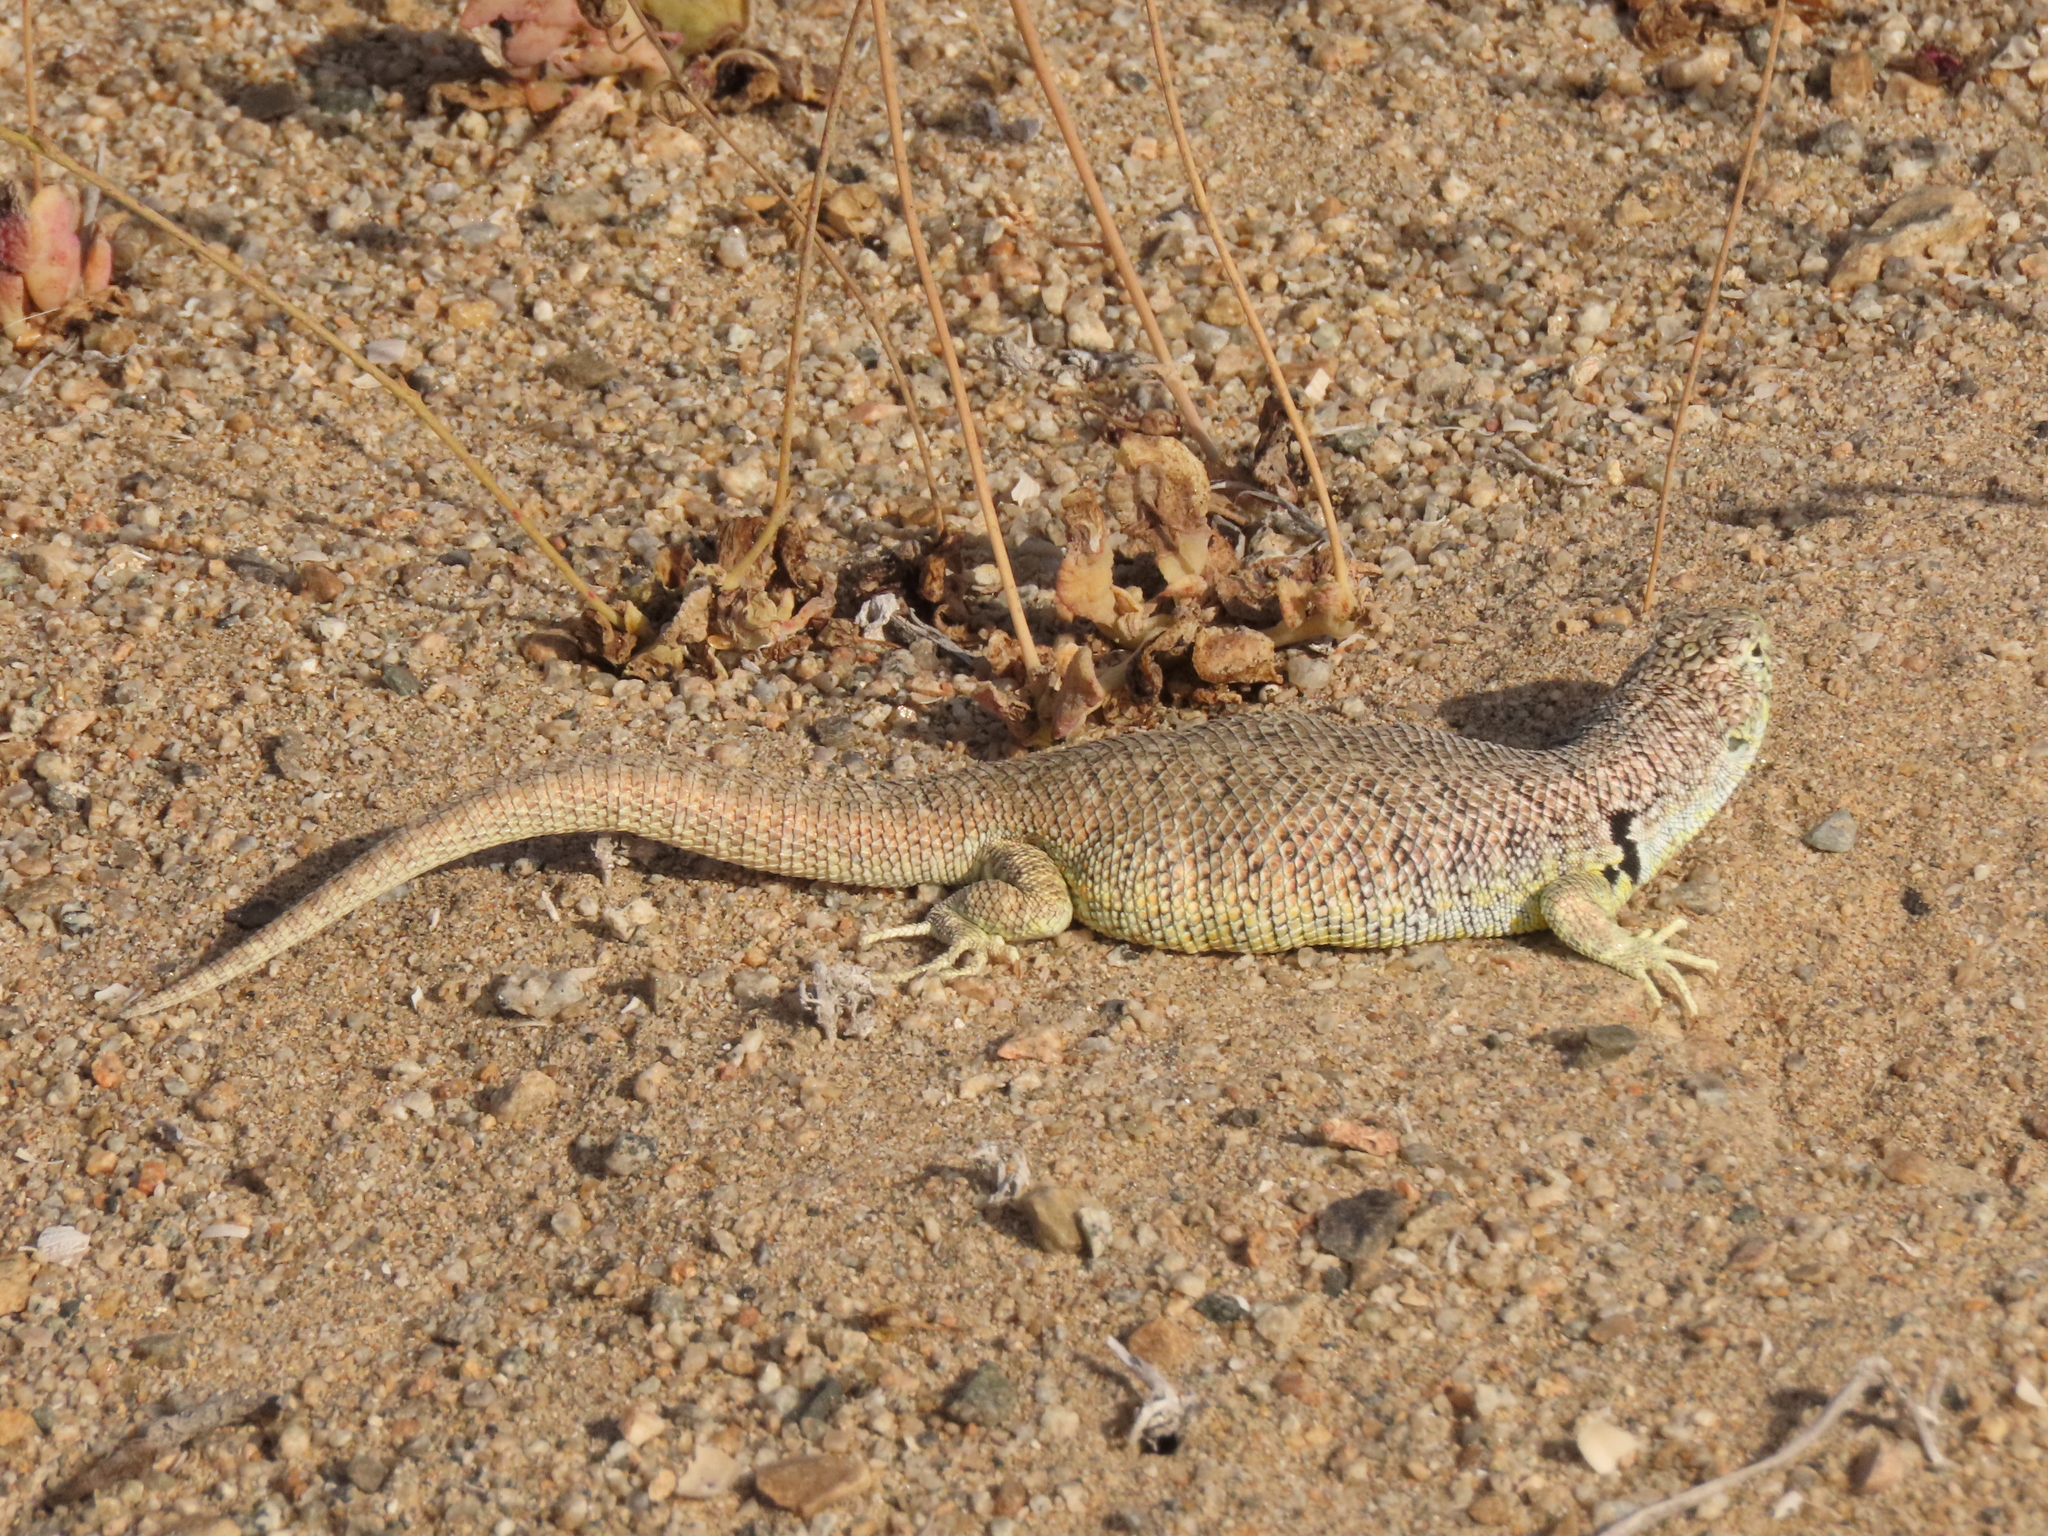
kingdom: Animalia
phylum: Chordata
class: Squamata
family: Liolaemidae
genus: Liolaemus
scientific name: Liolaemus nigromaculatus
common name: Many-spotted tree iguana
